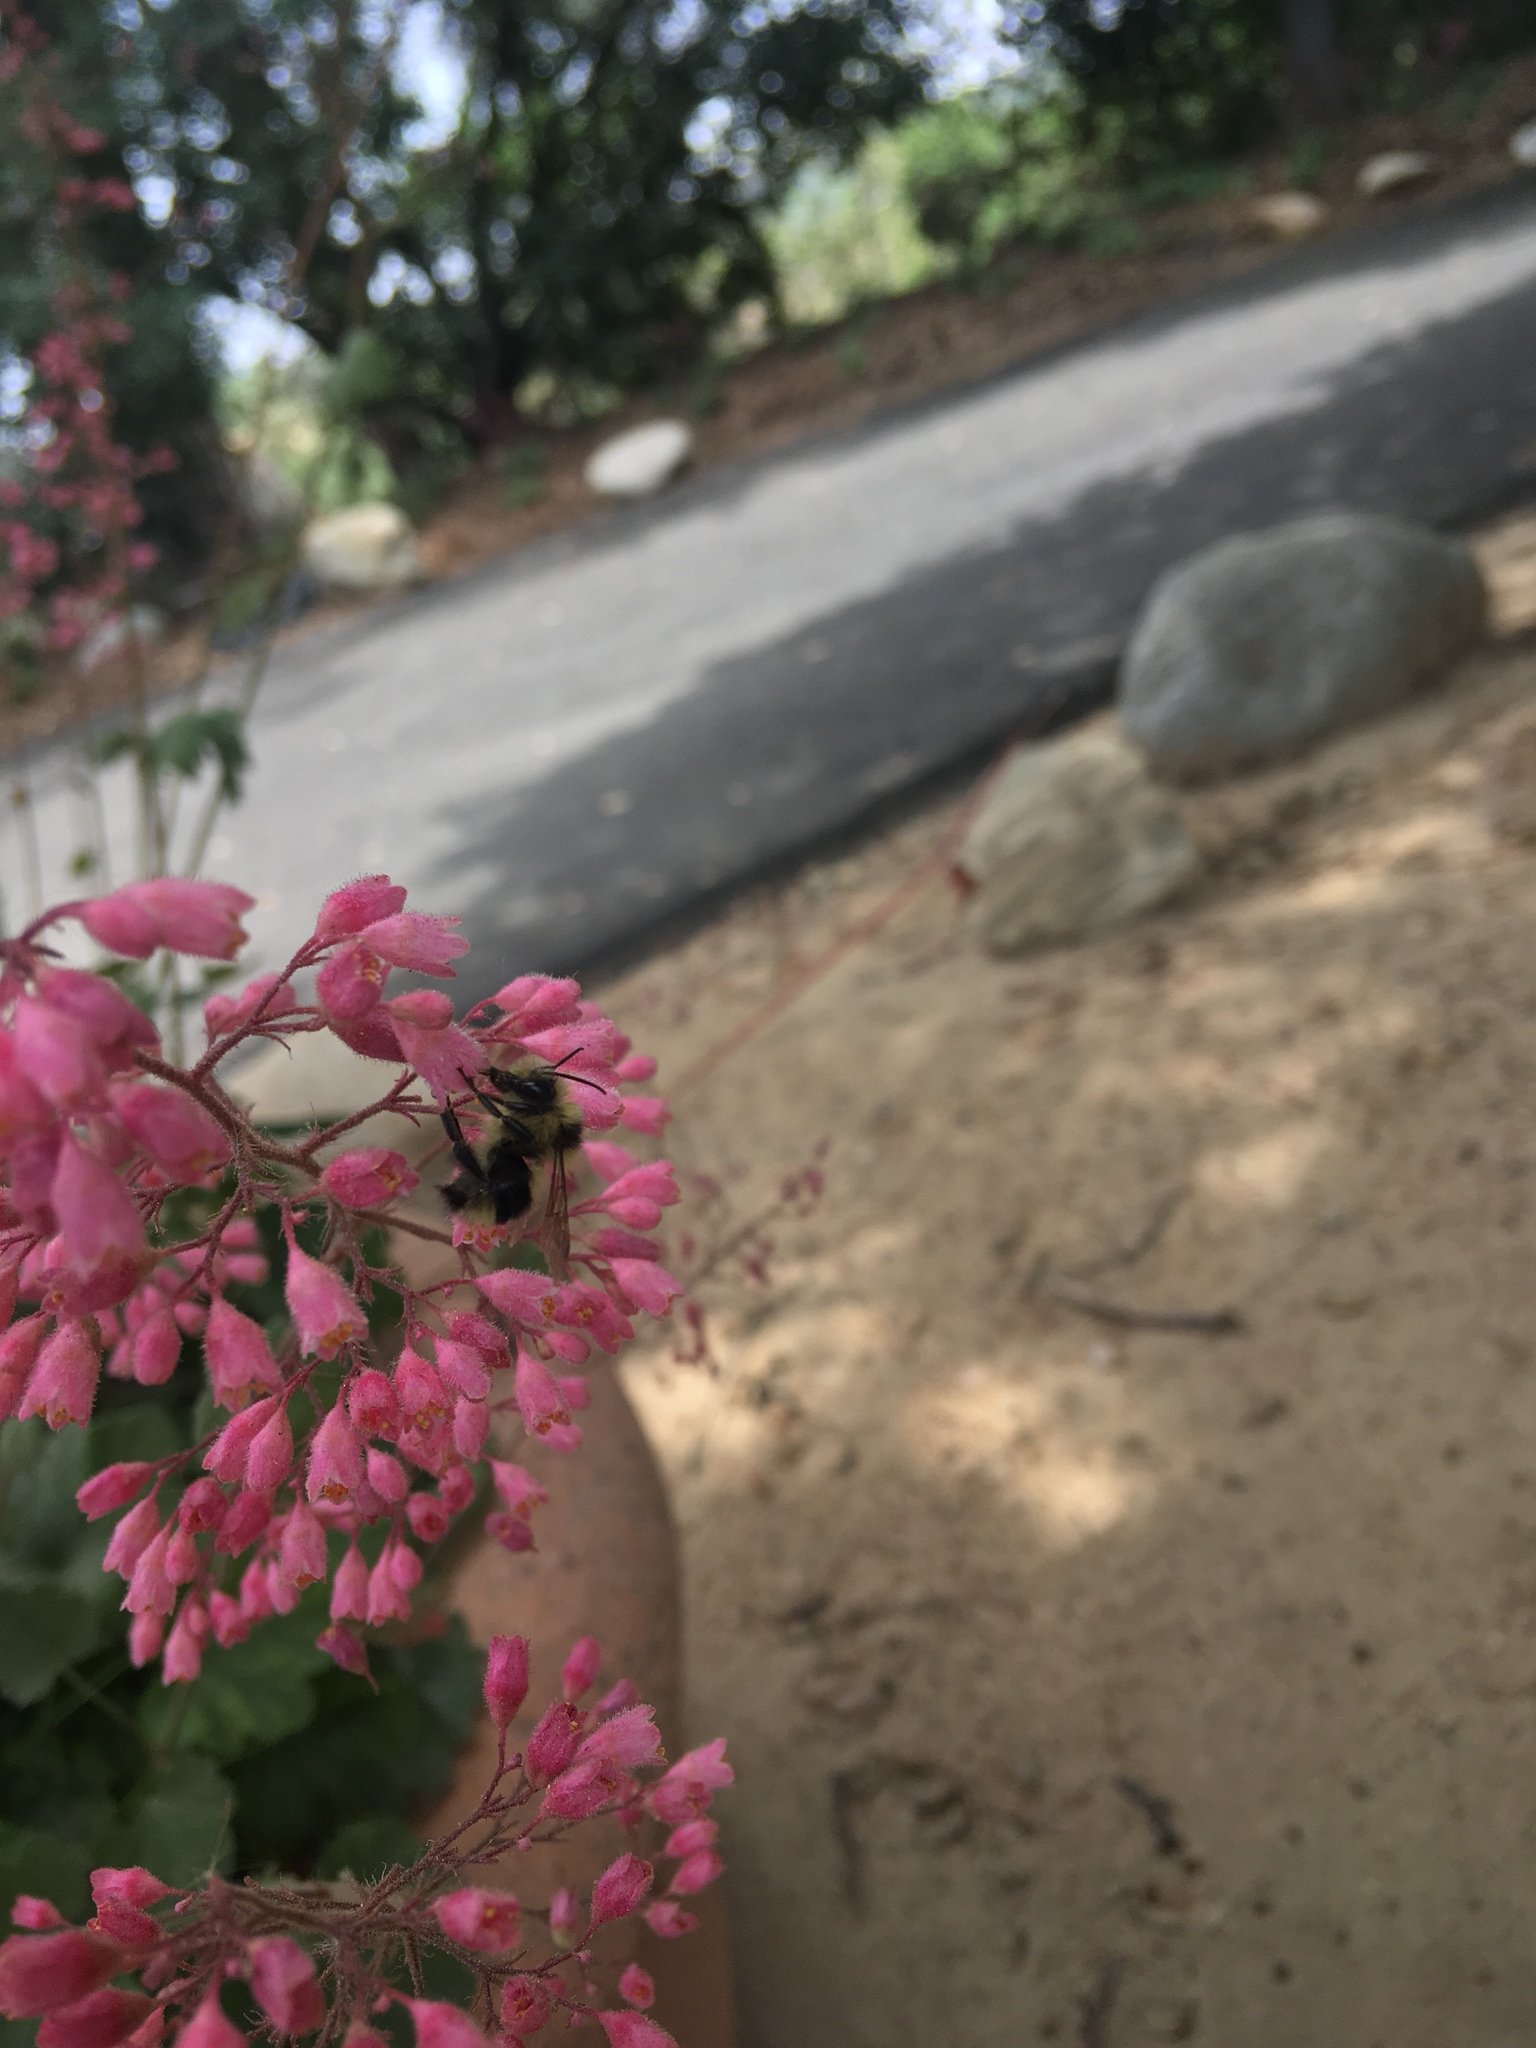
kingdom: Animalia
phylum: Arthropoda
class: Insecta
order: Hymenoptera
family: Apidae
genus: Bombus
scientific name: Bombus melanopygus
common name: Black tail bumble bee
